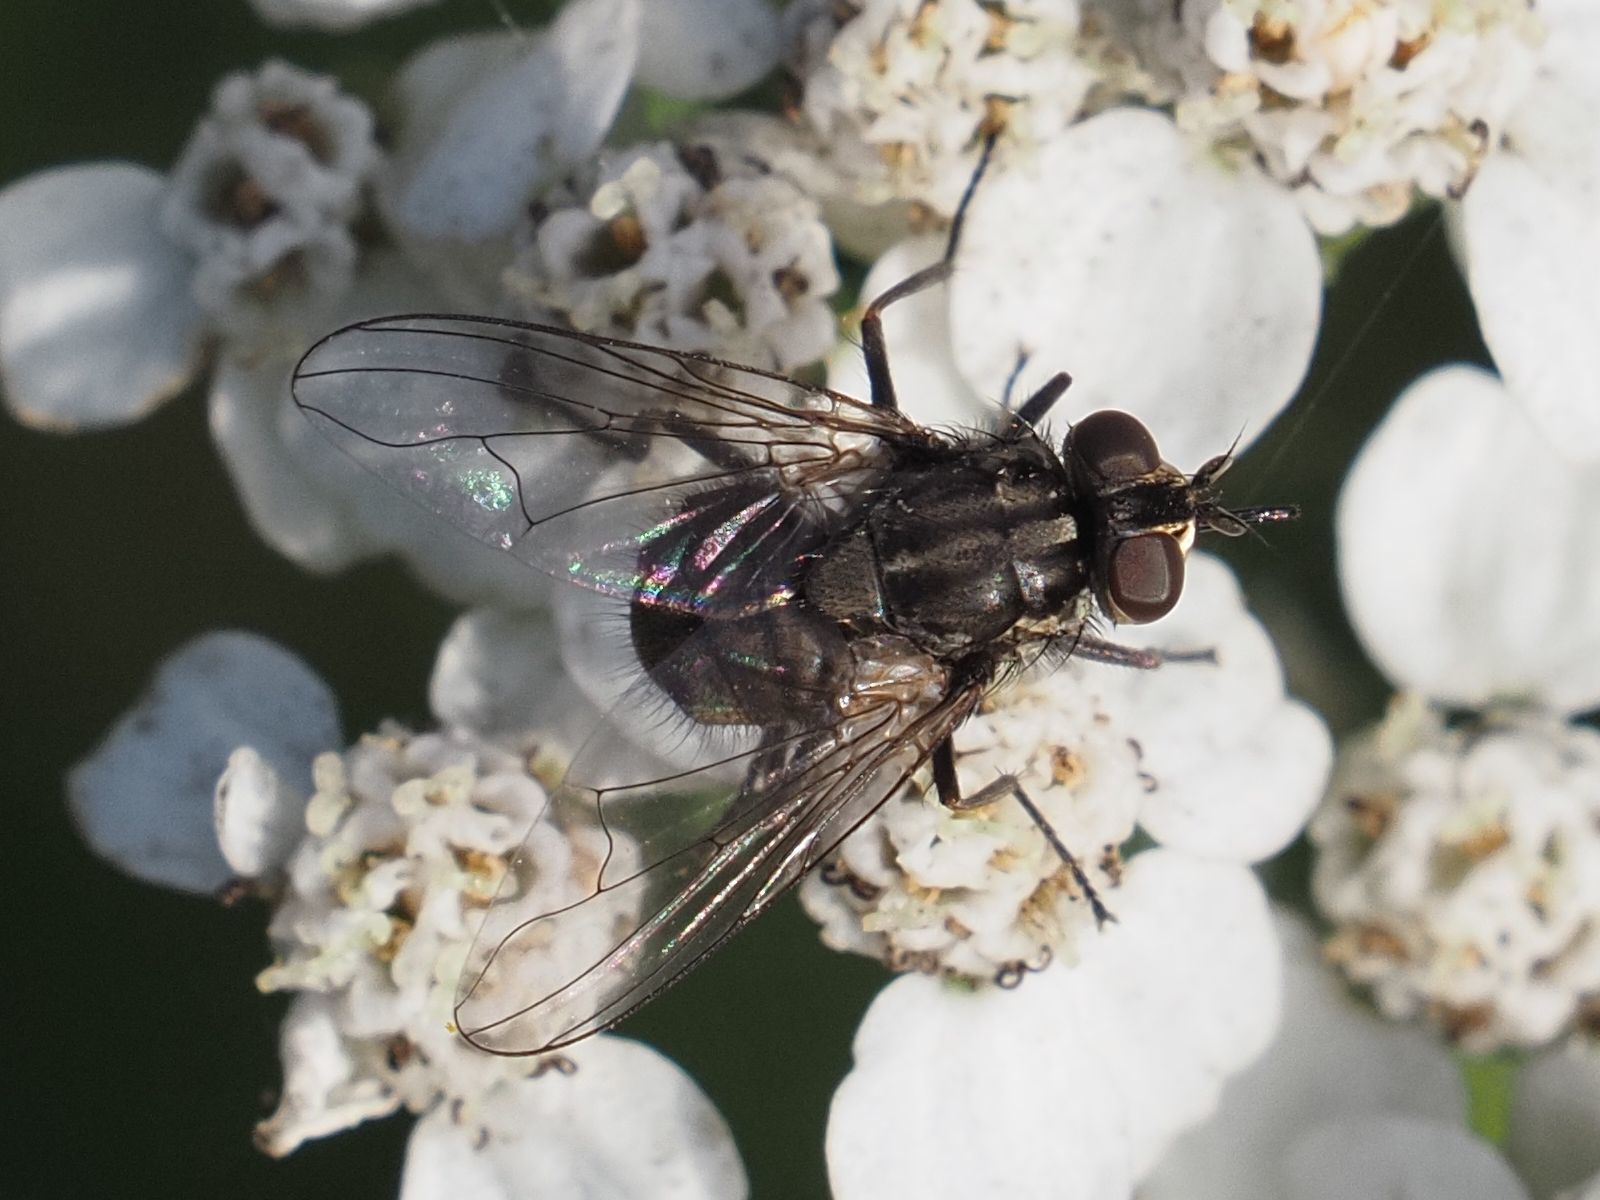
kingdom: Animalia
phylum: Arthropoda
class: Insecta
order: Diptera
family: Muscidae
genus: Stomoxys
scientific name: Stomoxys calcitrans
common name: Stable fly
